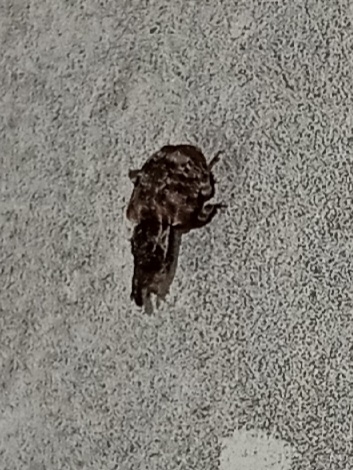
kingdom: Animalia
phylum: Arthropoda
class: Insecta
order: Coleoptera
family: Curculionidae
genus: Conotrachelus
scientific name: Conotrachelus anaglypticus
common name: Cambium curculio
